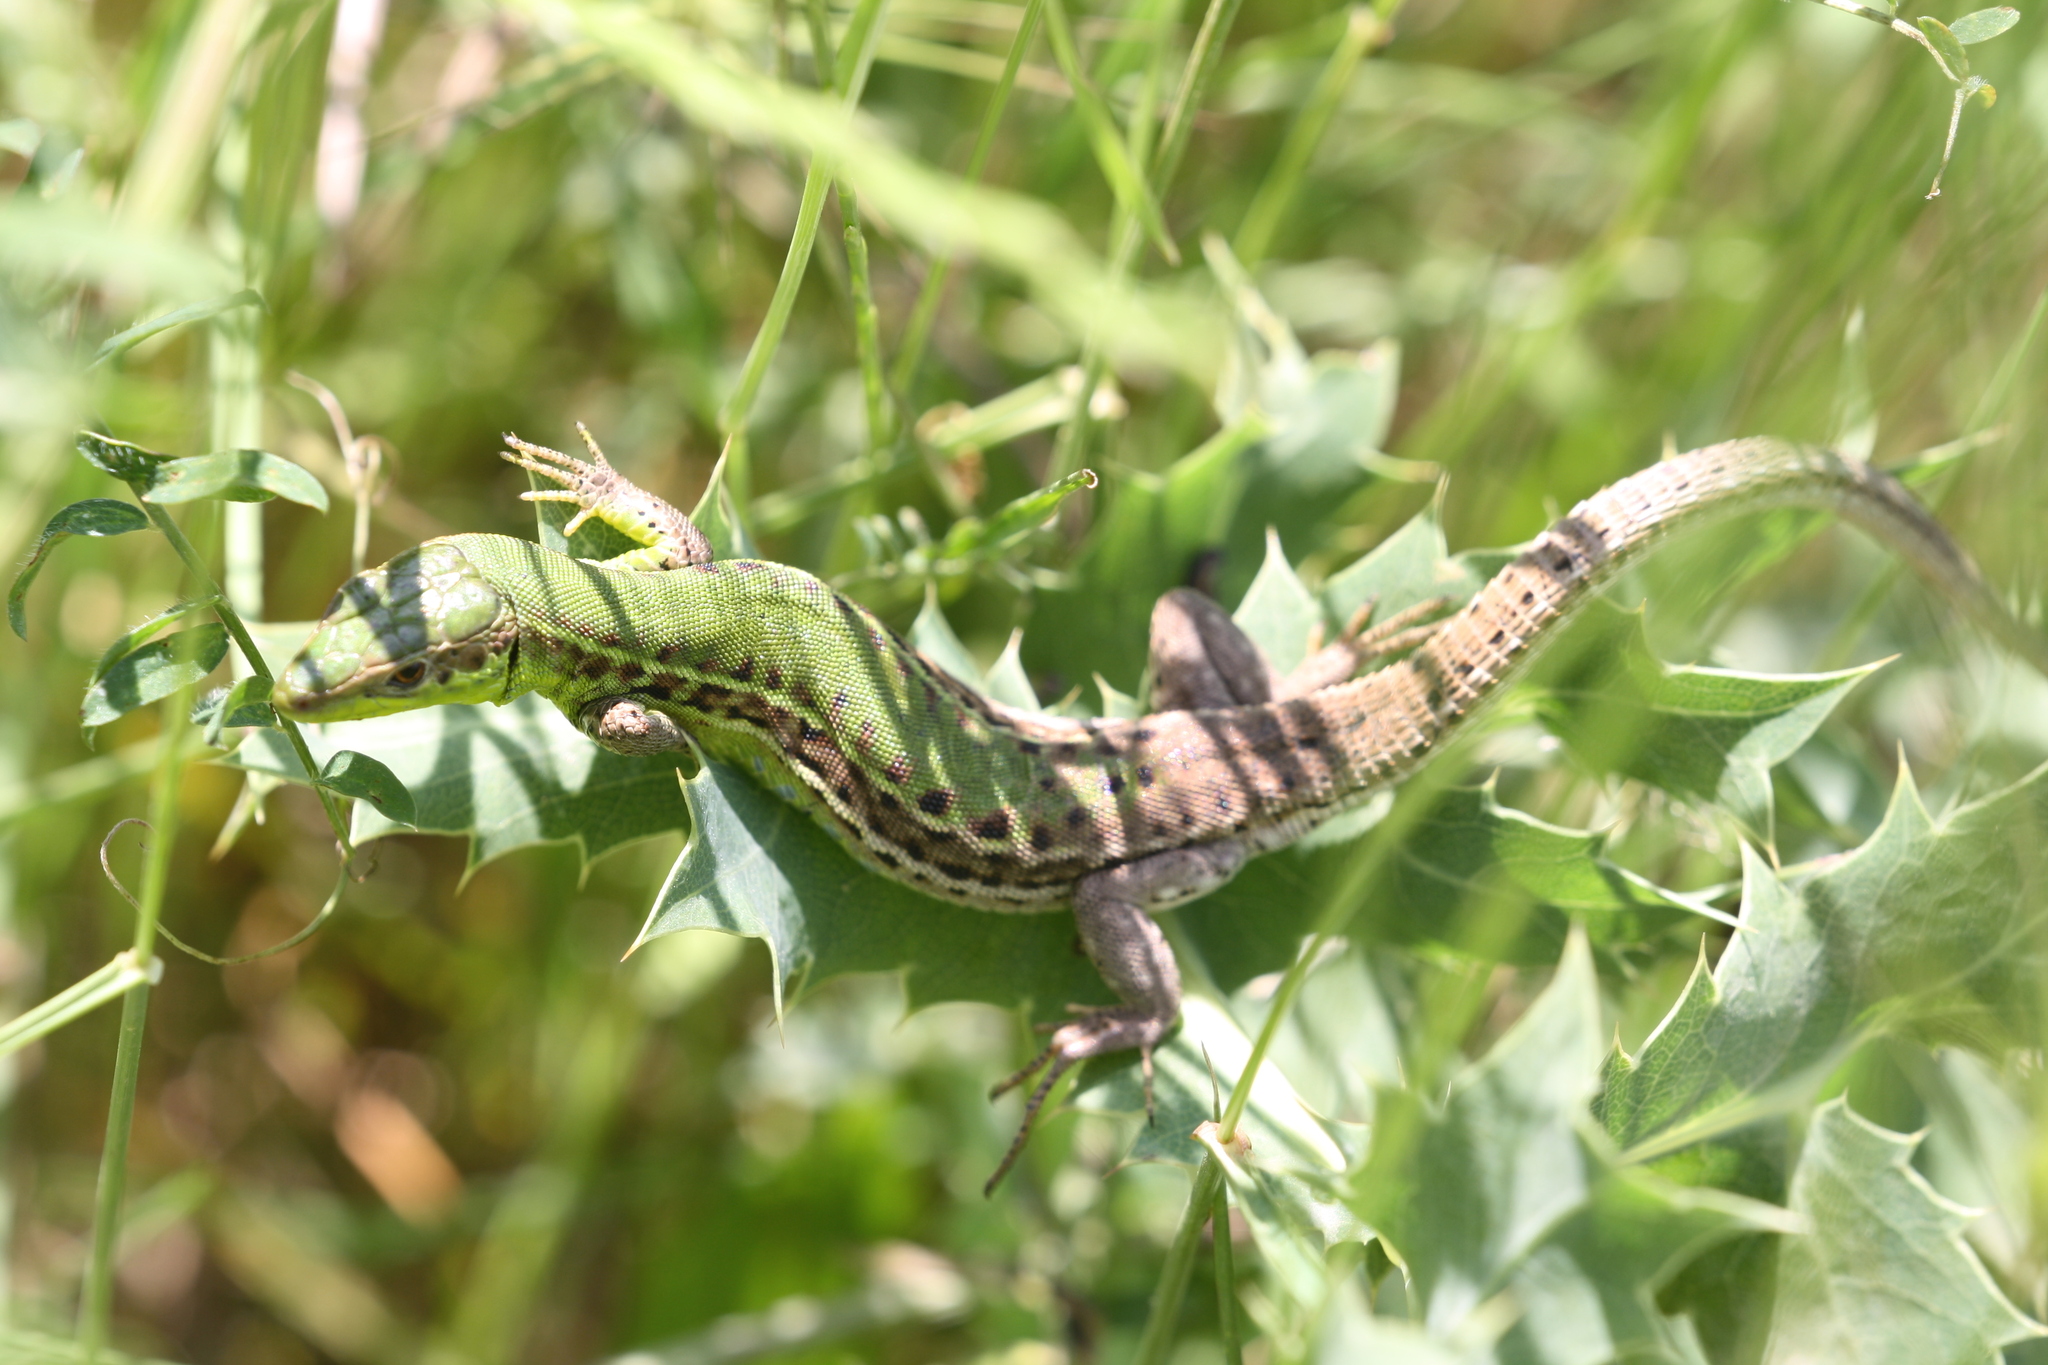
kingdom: Animalia
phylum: Chordata
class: Squamata
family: Lacertidae
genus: Podarcis
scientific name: Podarcis ionicus
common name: Ionian wall lizard
